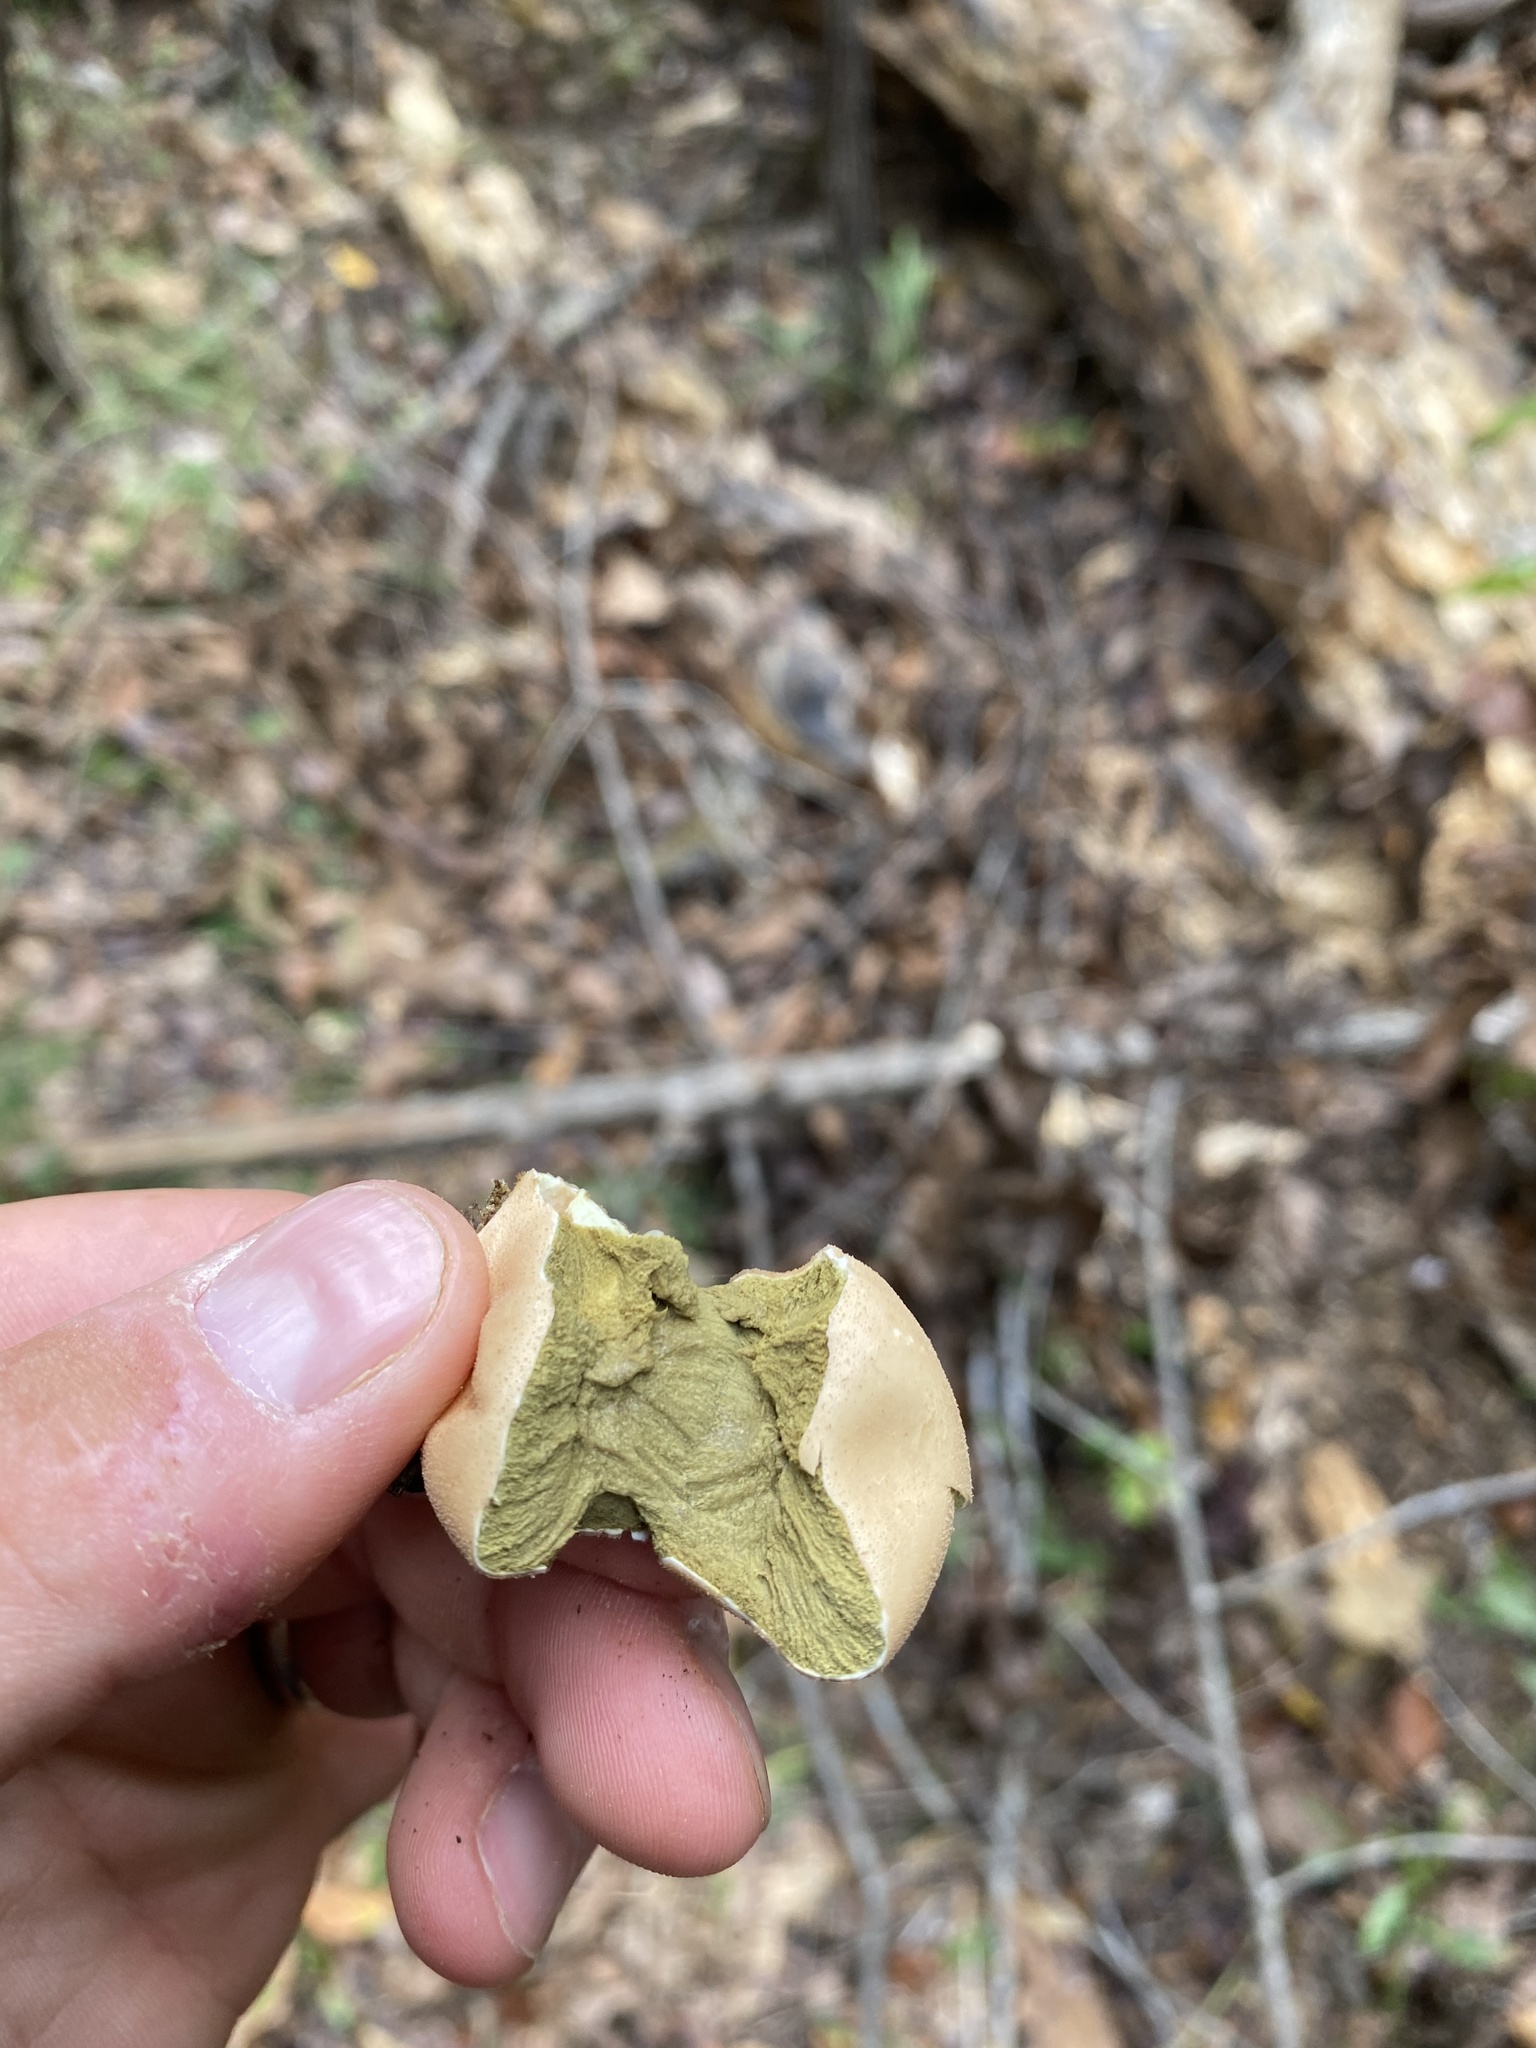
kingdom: Fungi
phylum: Basidiomycota
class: Agaricomycetes
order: Agaricales
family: Lycoperdaceae
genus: Apioperdon
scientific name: Apioperdon pyriforme
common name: Pear-shaped puffball
